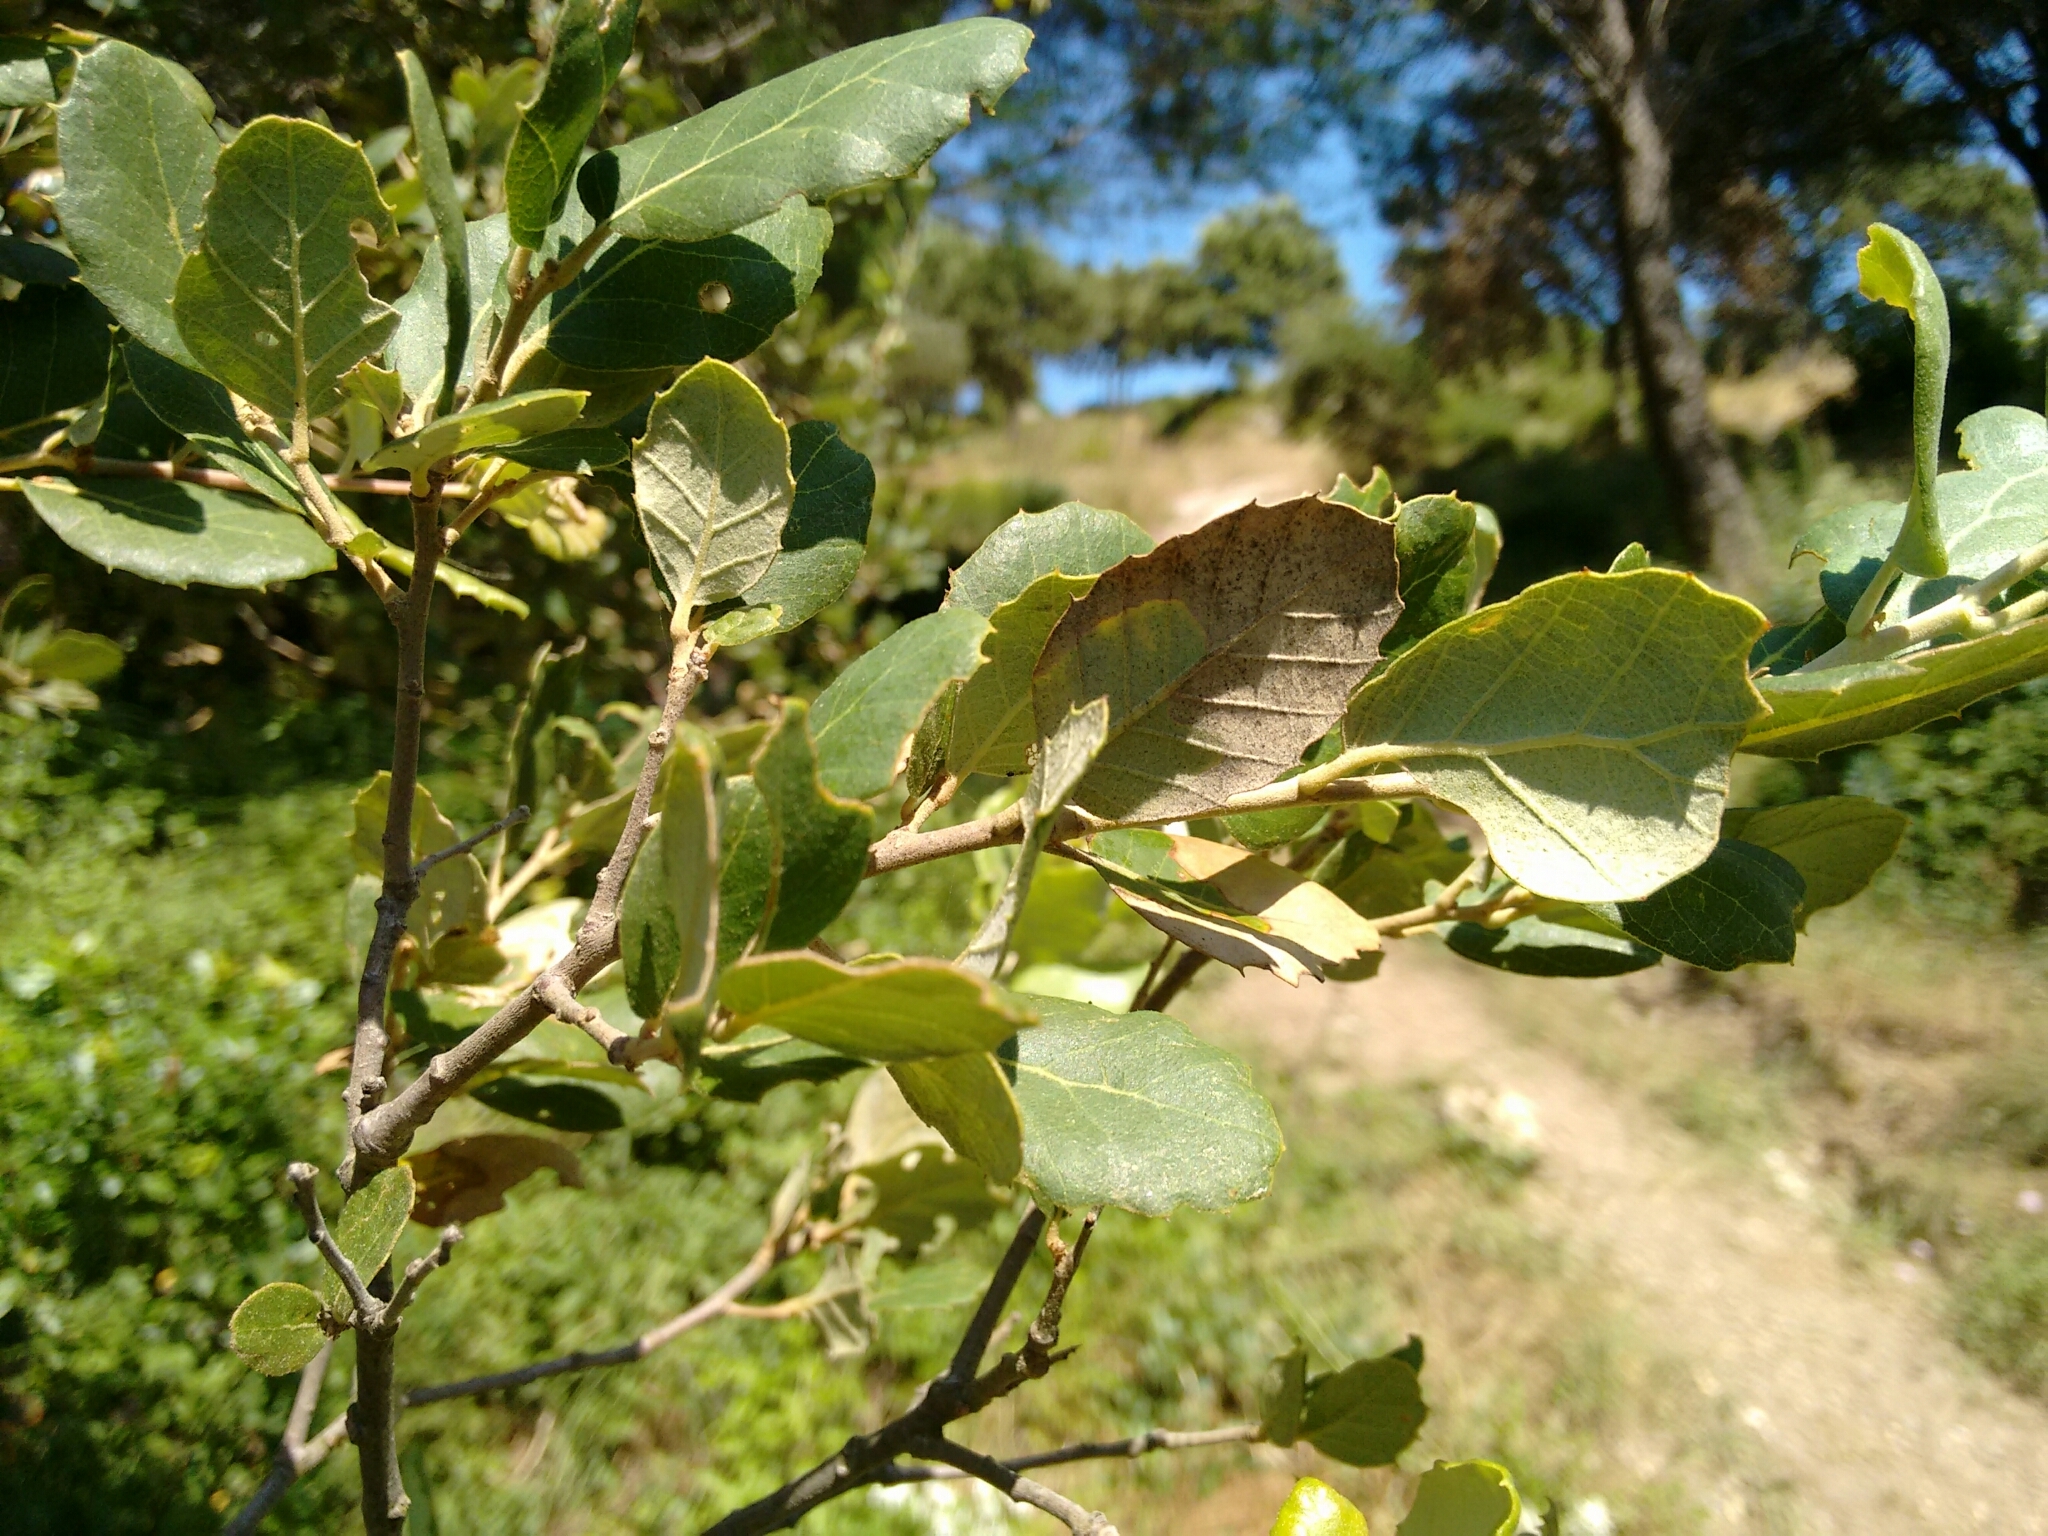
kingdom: Plantae
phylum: Tracheophyta
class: Magnoliopsida
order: Fagales
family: Fagaceae
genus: Quercus
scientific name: Quercus suber
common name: Cork oak
